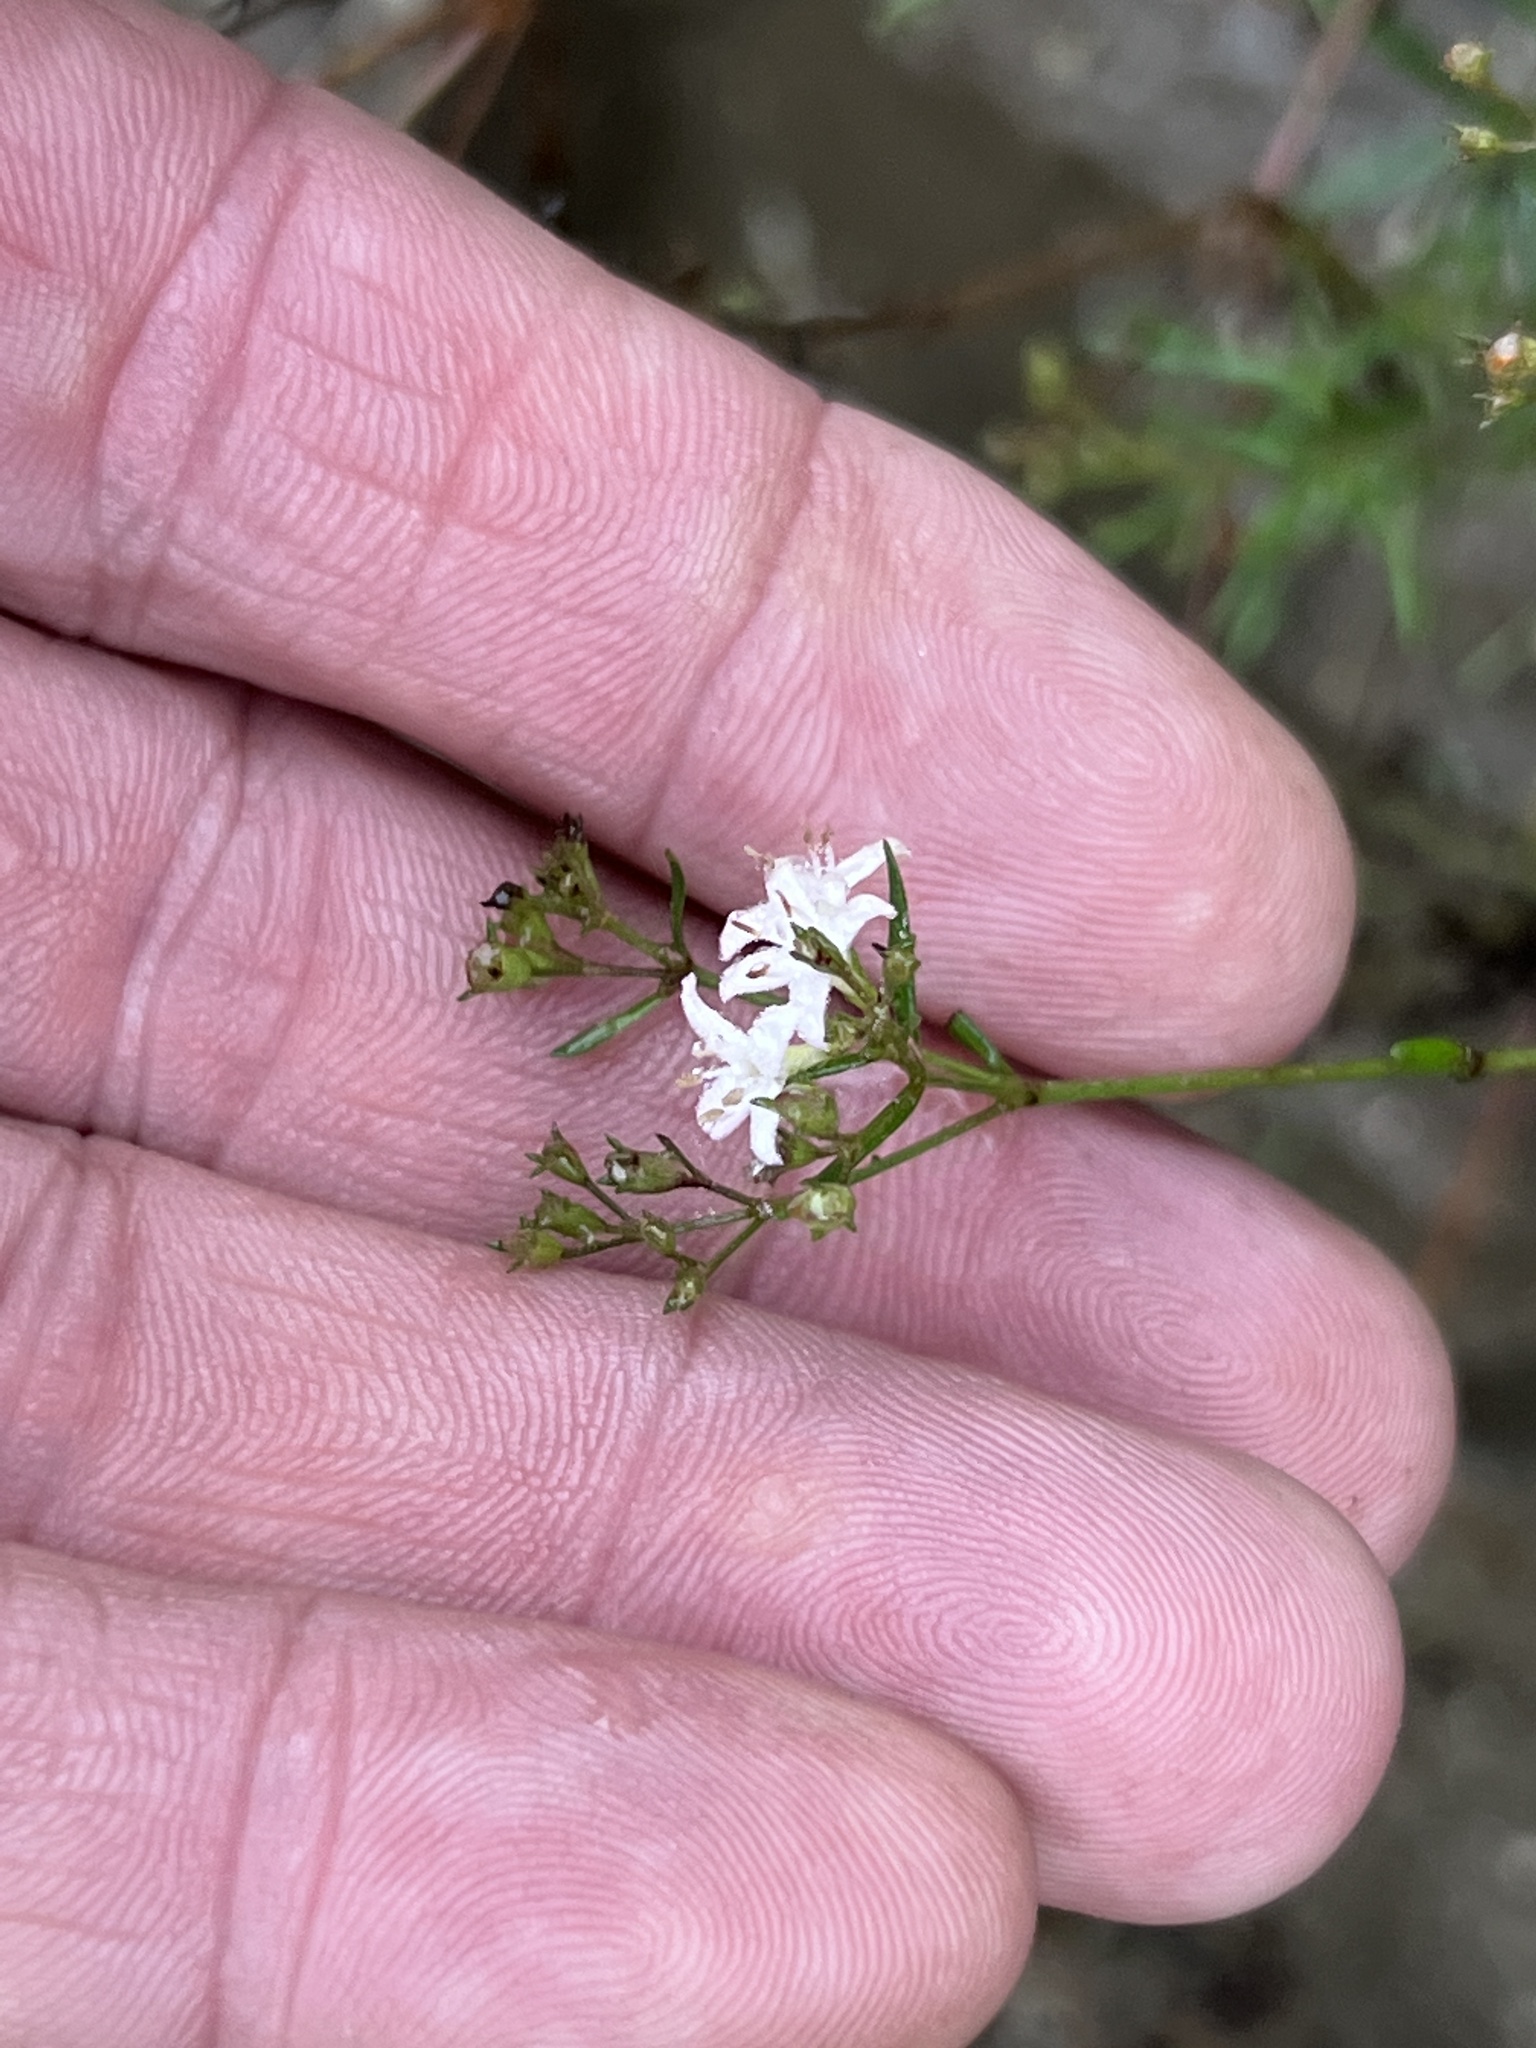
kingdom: Plantae
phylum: Tracheophyta
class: Magnoliopsida
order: Gentianales
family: Rubiaceae
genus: Stenaria
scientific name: Stenaria nigricans
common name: Diamondflowers
